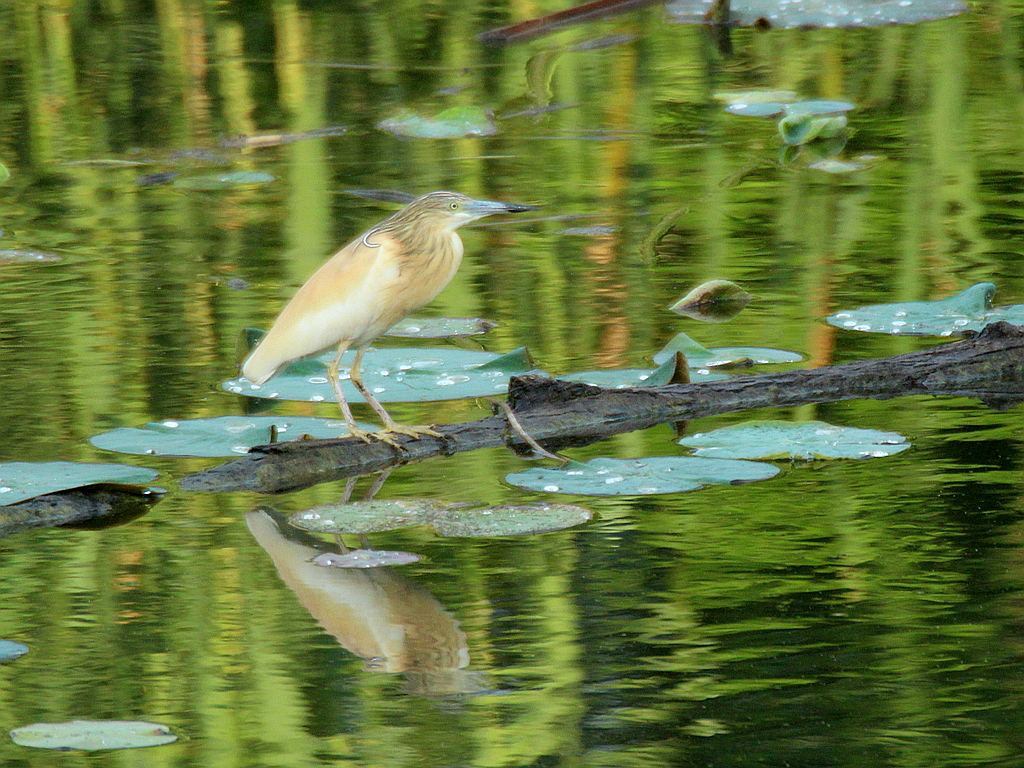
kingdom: Animalia
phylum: Chordata
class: Aves
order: Pelecaniformes
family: Ardeidae
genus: Ardeola
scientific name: Ardeola ralloides
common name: Squacco heron
